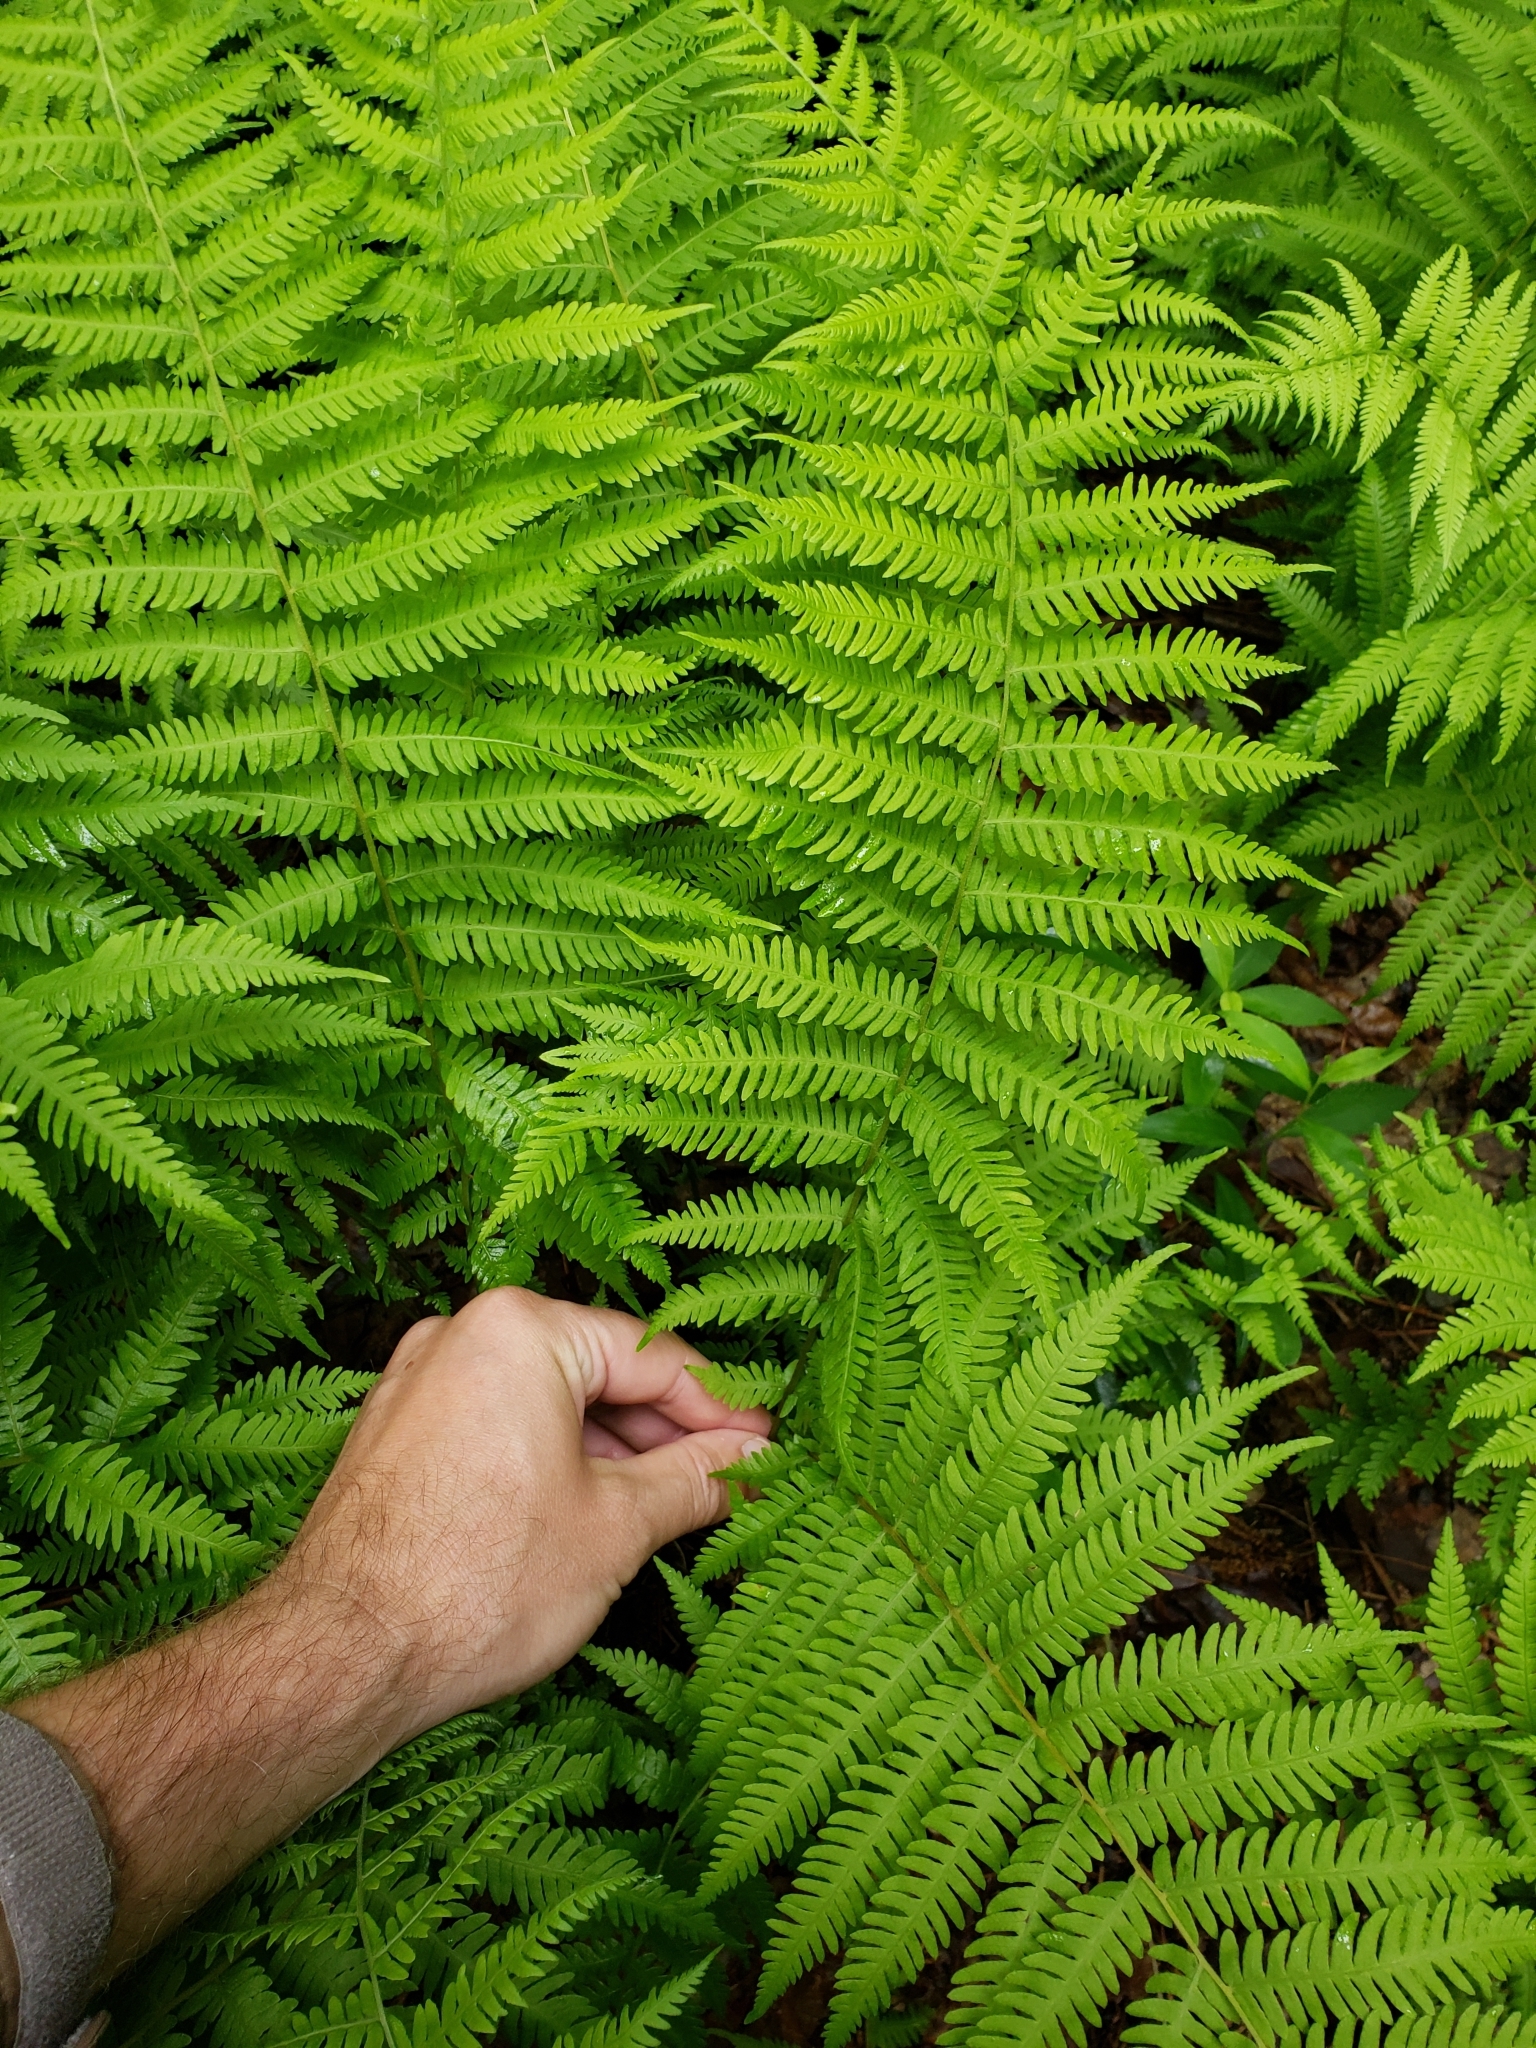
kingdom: Plantae
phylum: Tracheophyta
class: Polypodiopsida
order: Polypodiales
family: Thelypteridaceae
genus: Amauropelta
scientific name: Amauropelta noveboracensis
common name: New york fern
